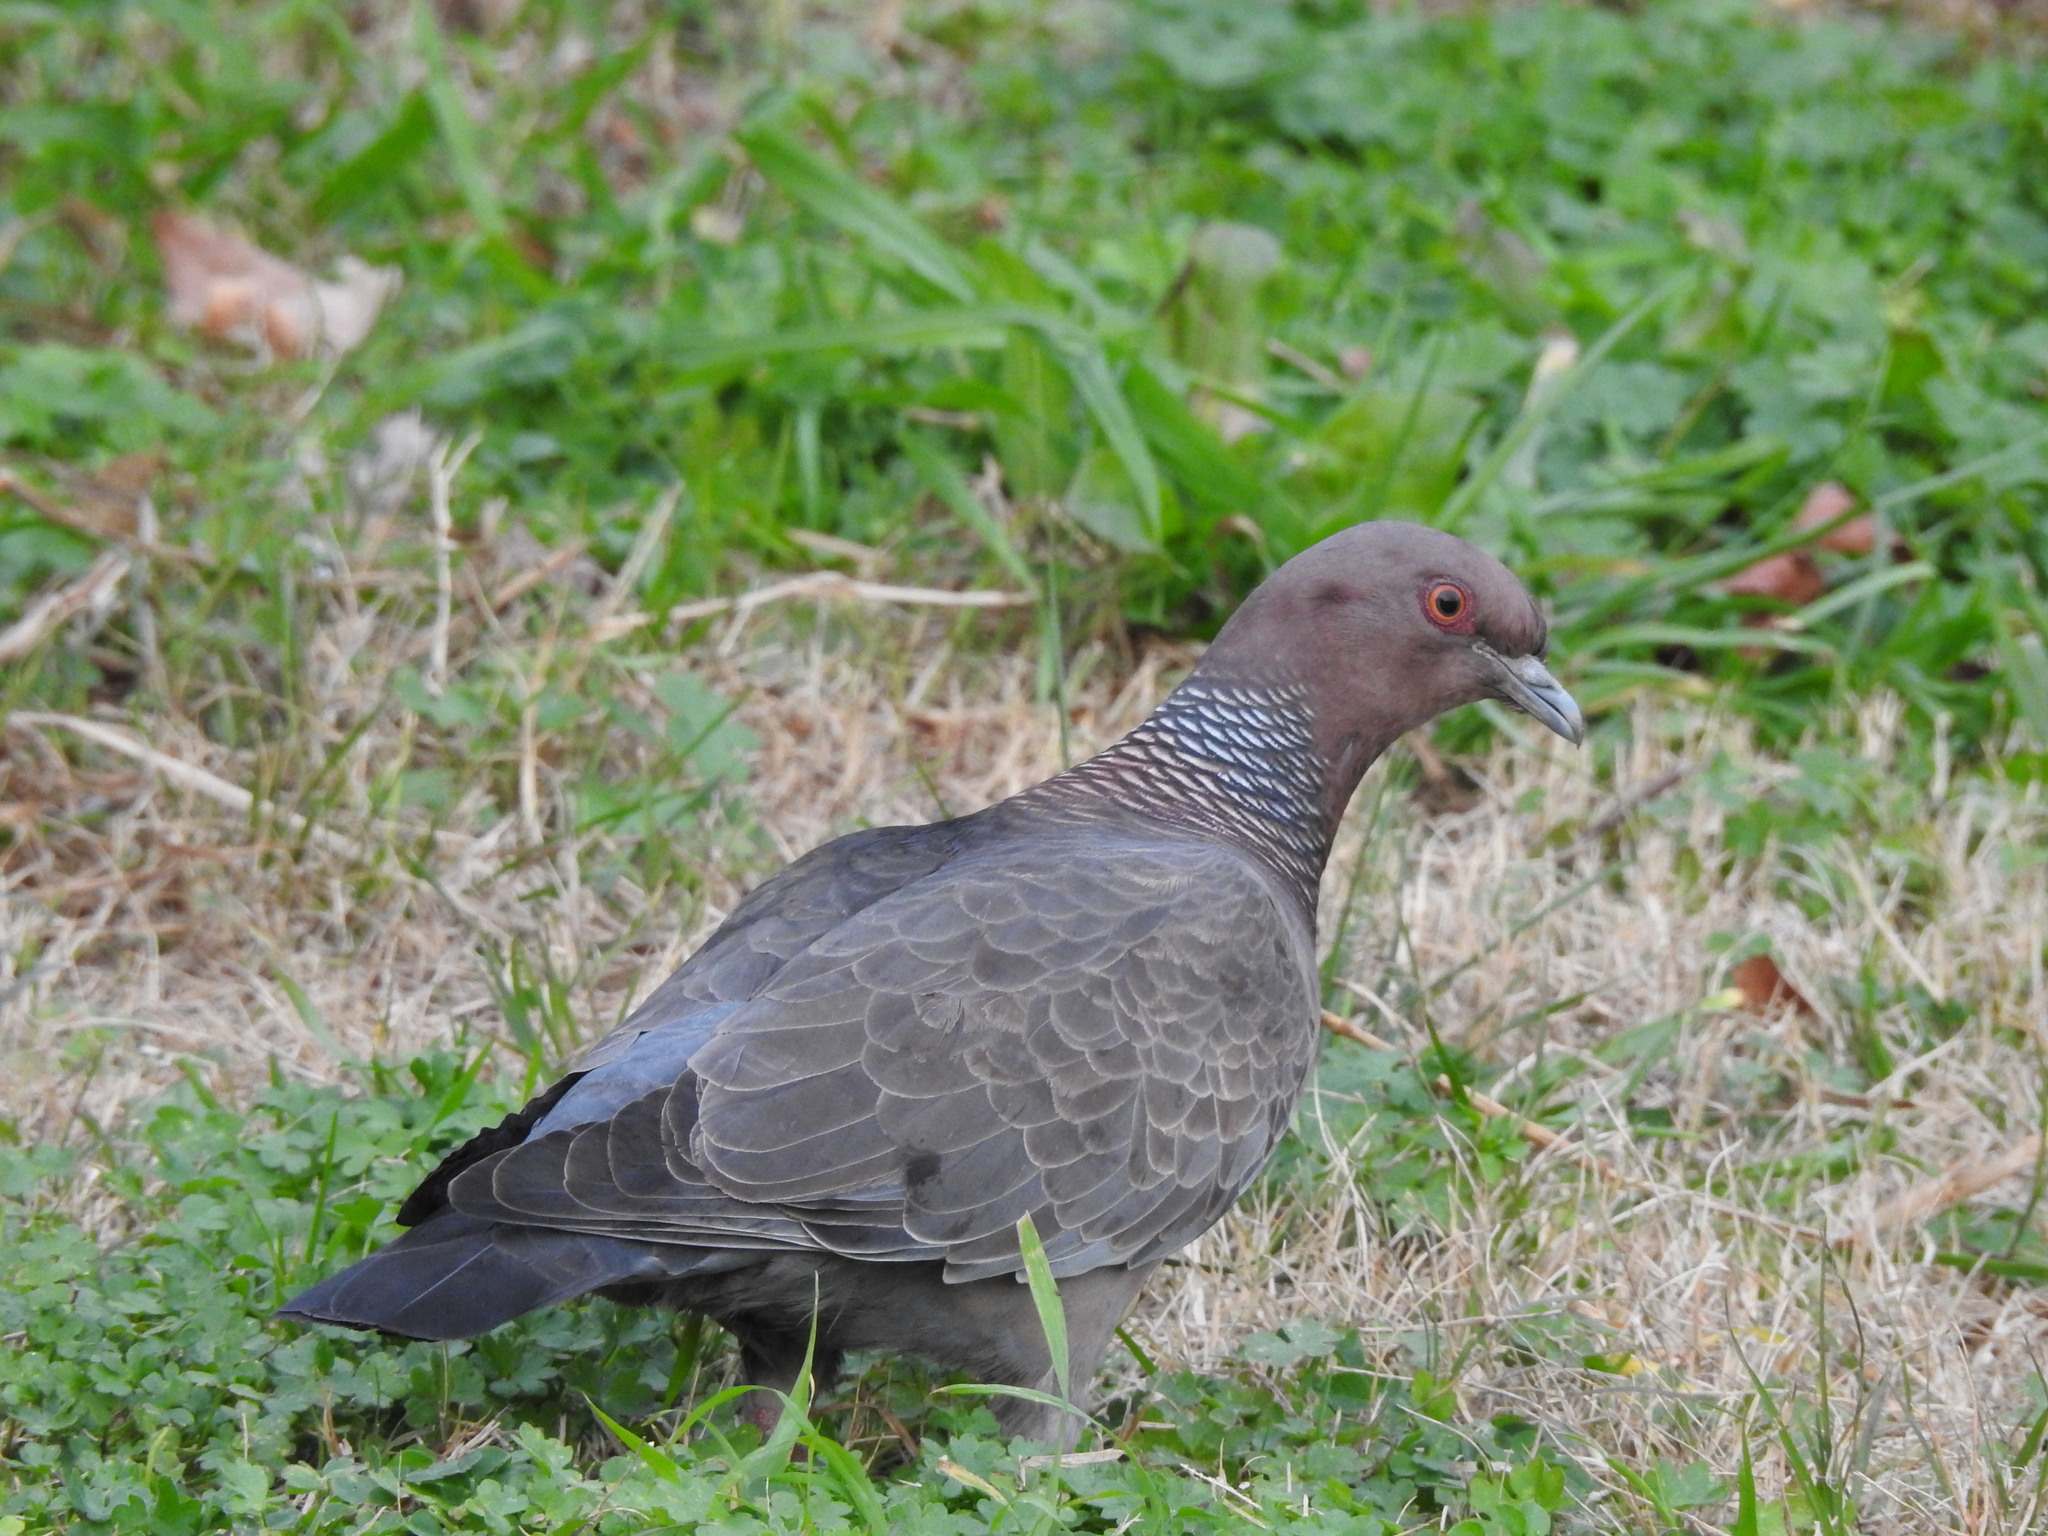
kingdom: Animalia
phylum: Chordata
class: Aves
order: Columbiformes
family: Columbidae
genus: Patagioenas
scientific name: Patagioenas picazuro
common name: Picazuro pigeon
